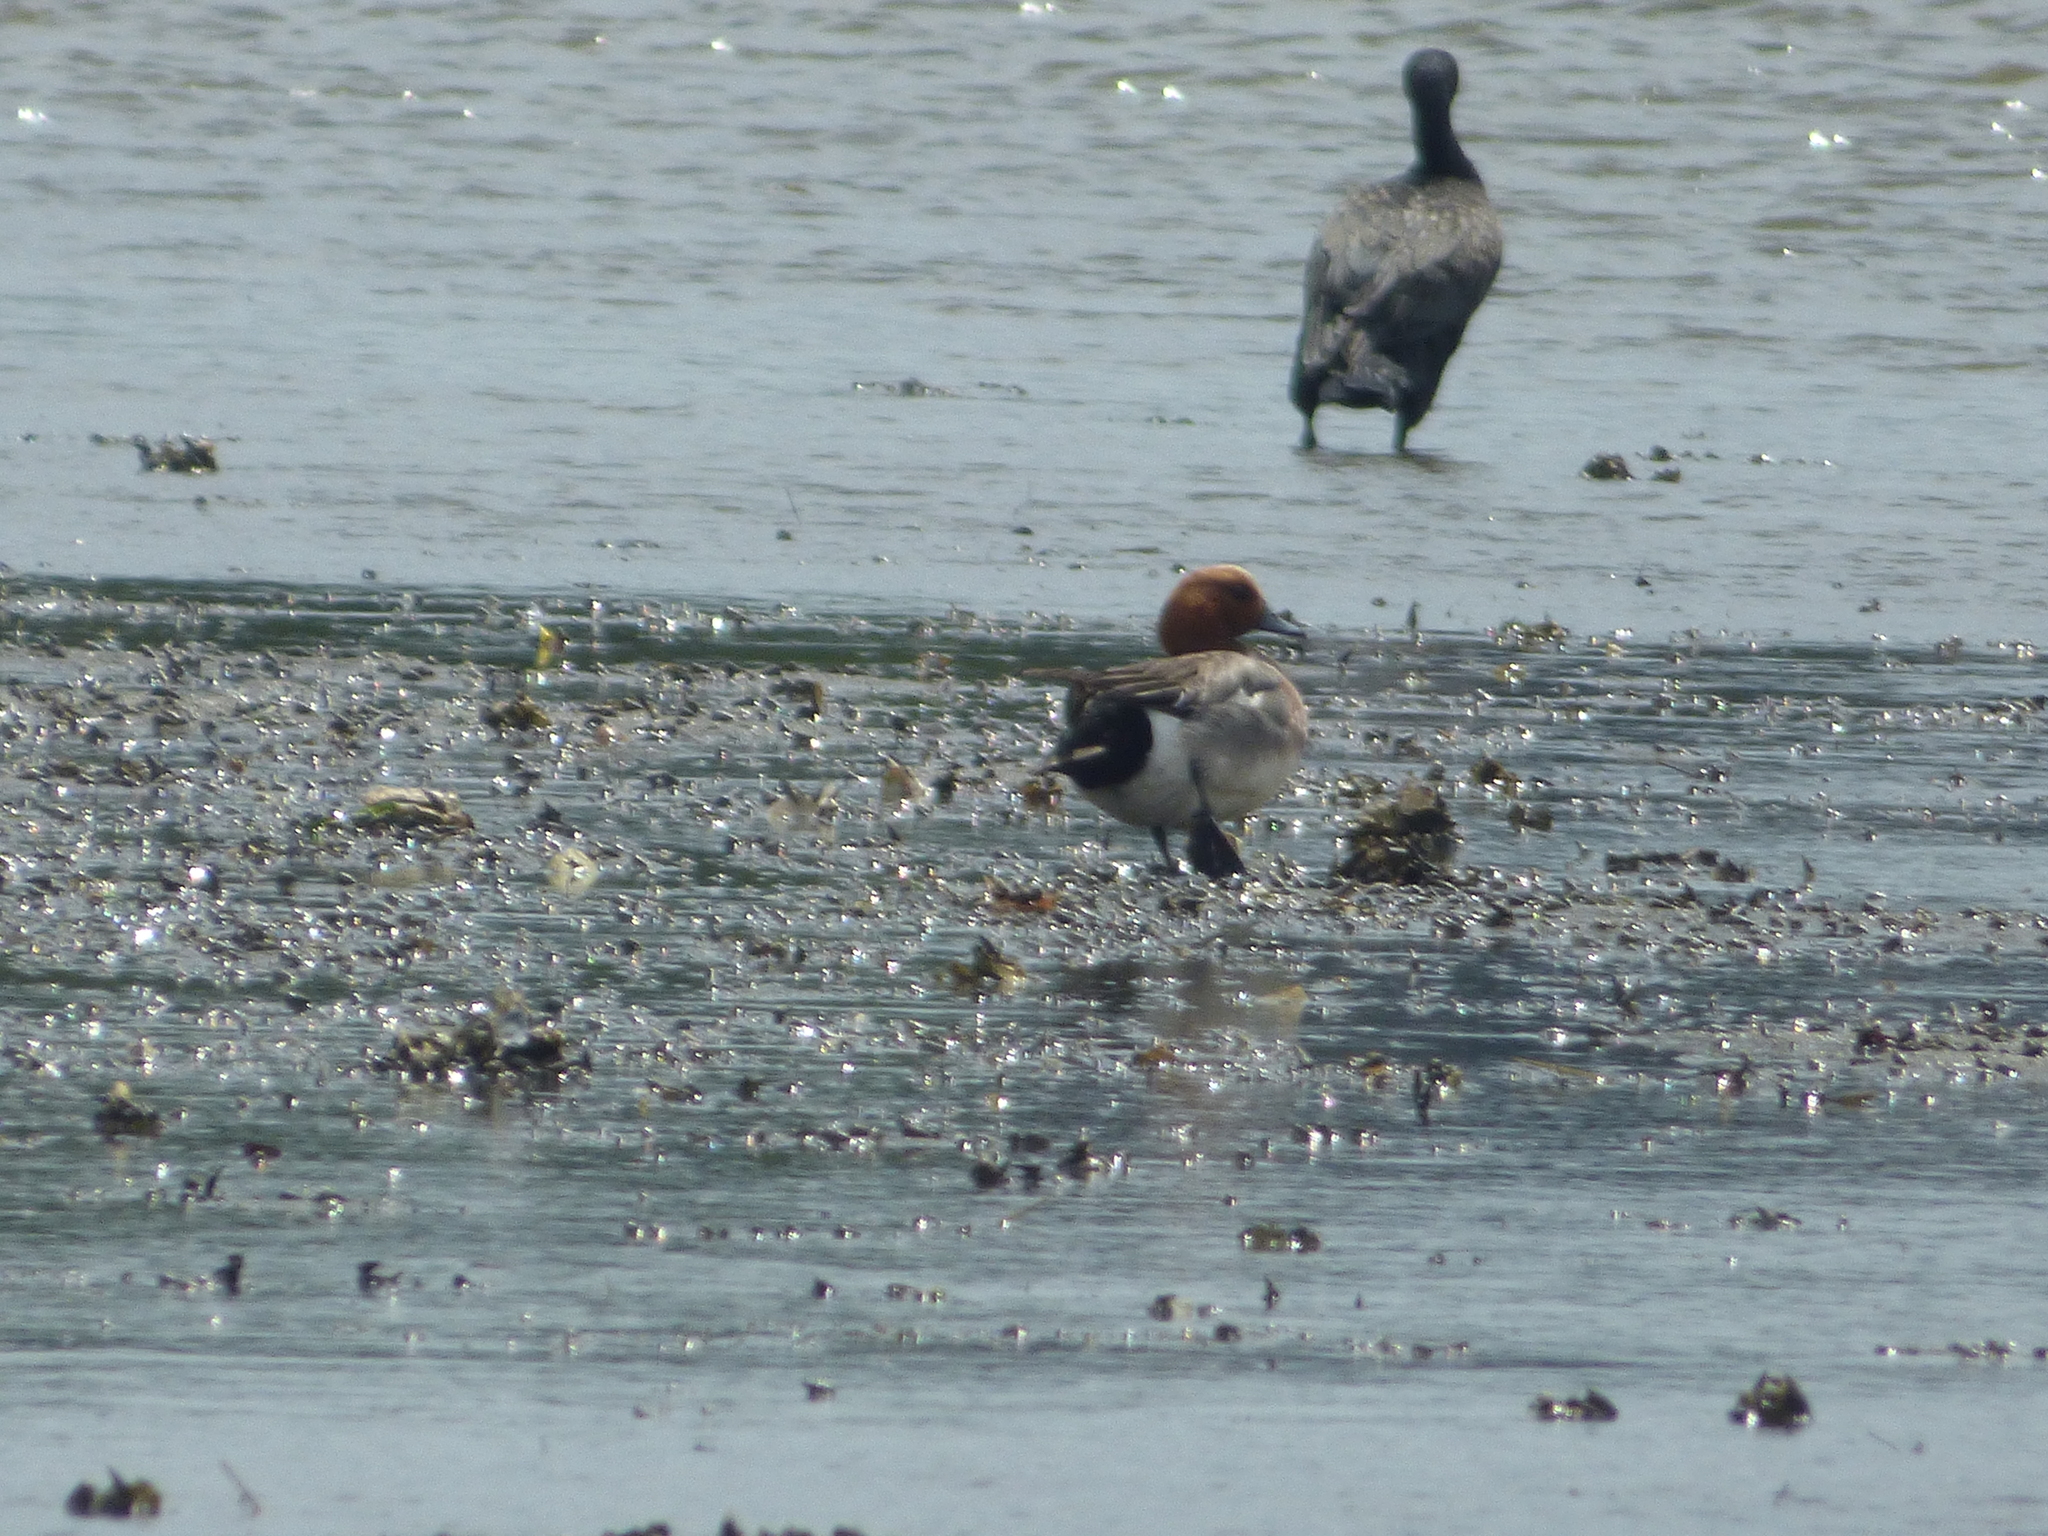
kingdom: Animalia
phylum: Chordata
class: Aves
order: Anseriformes
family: Anatidae
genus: Mareca
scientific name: Mareca penelope
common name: Eurasian wigeon
